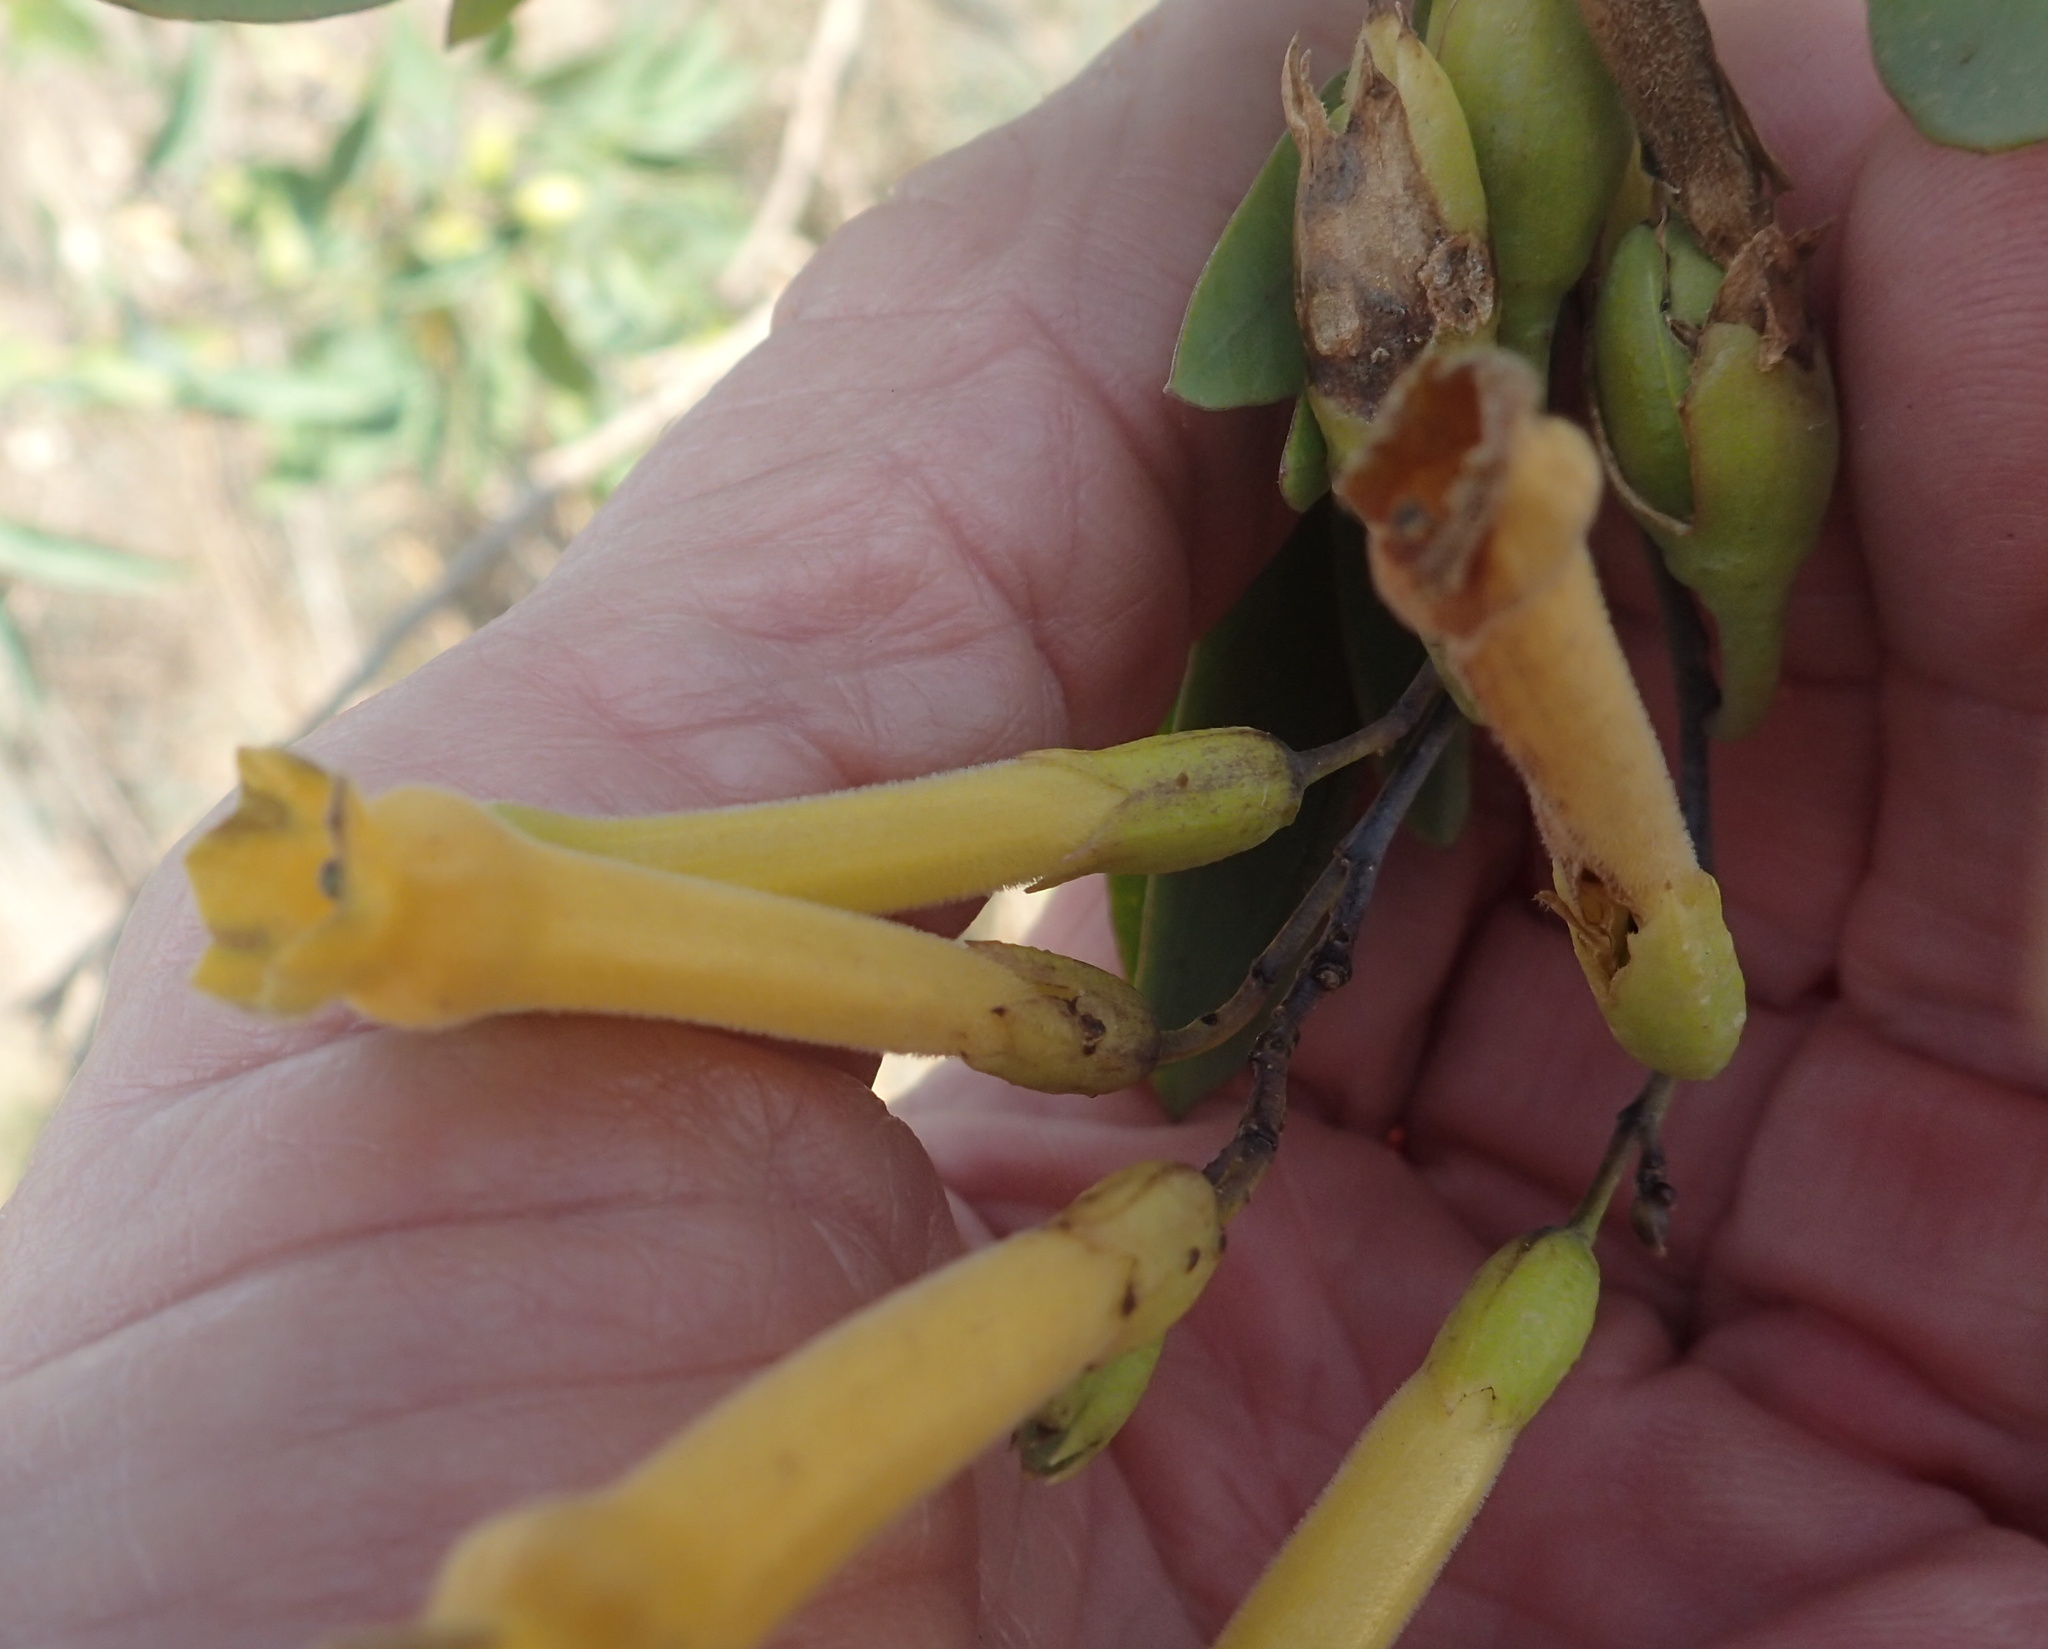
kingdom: Plantae
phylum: Tracheophyta
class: Magnoliopsida
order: Solanales
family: Solanaceae
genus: Nicotiana
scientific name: Nicotiana glauca
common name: Tree tobacco
